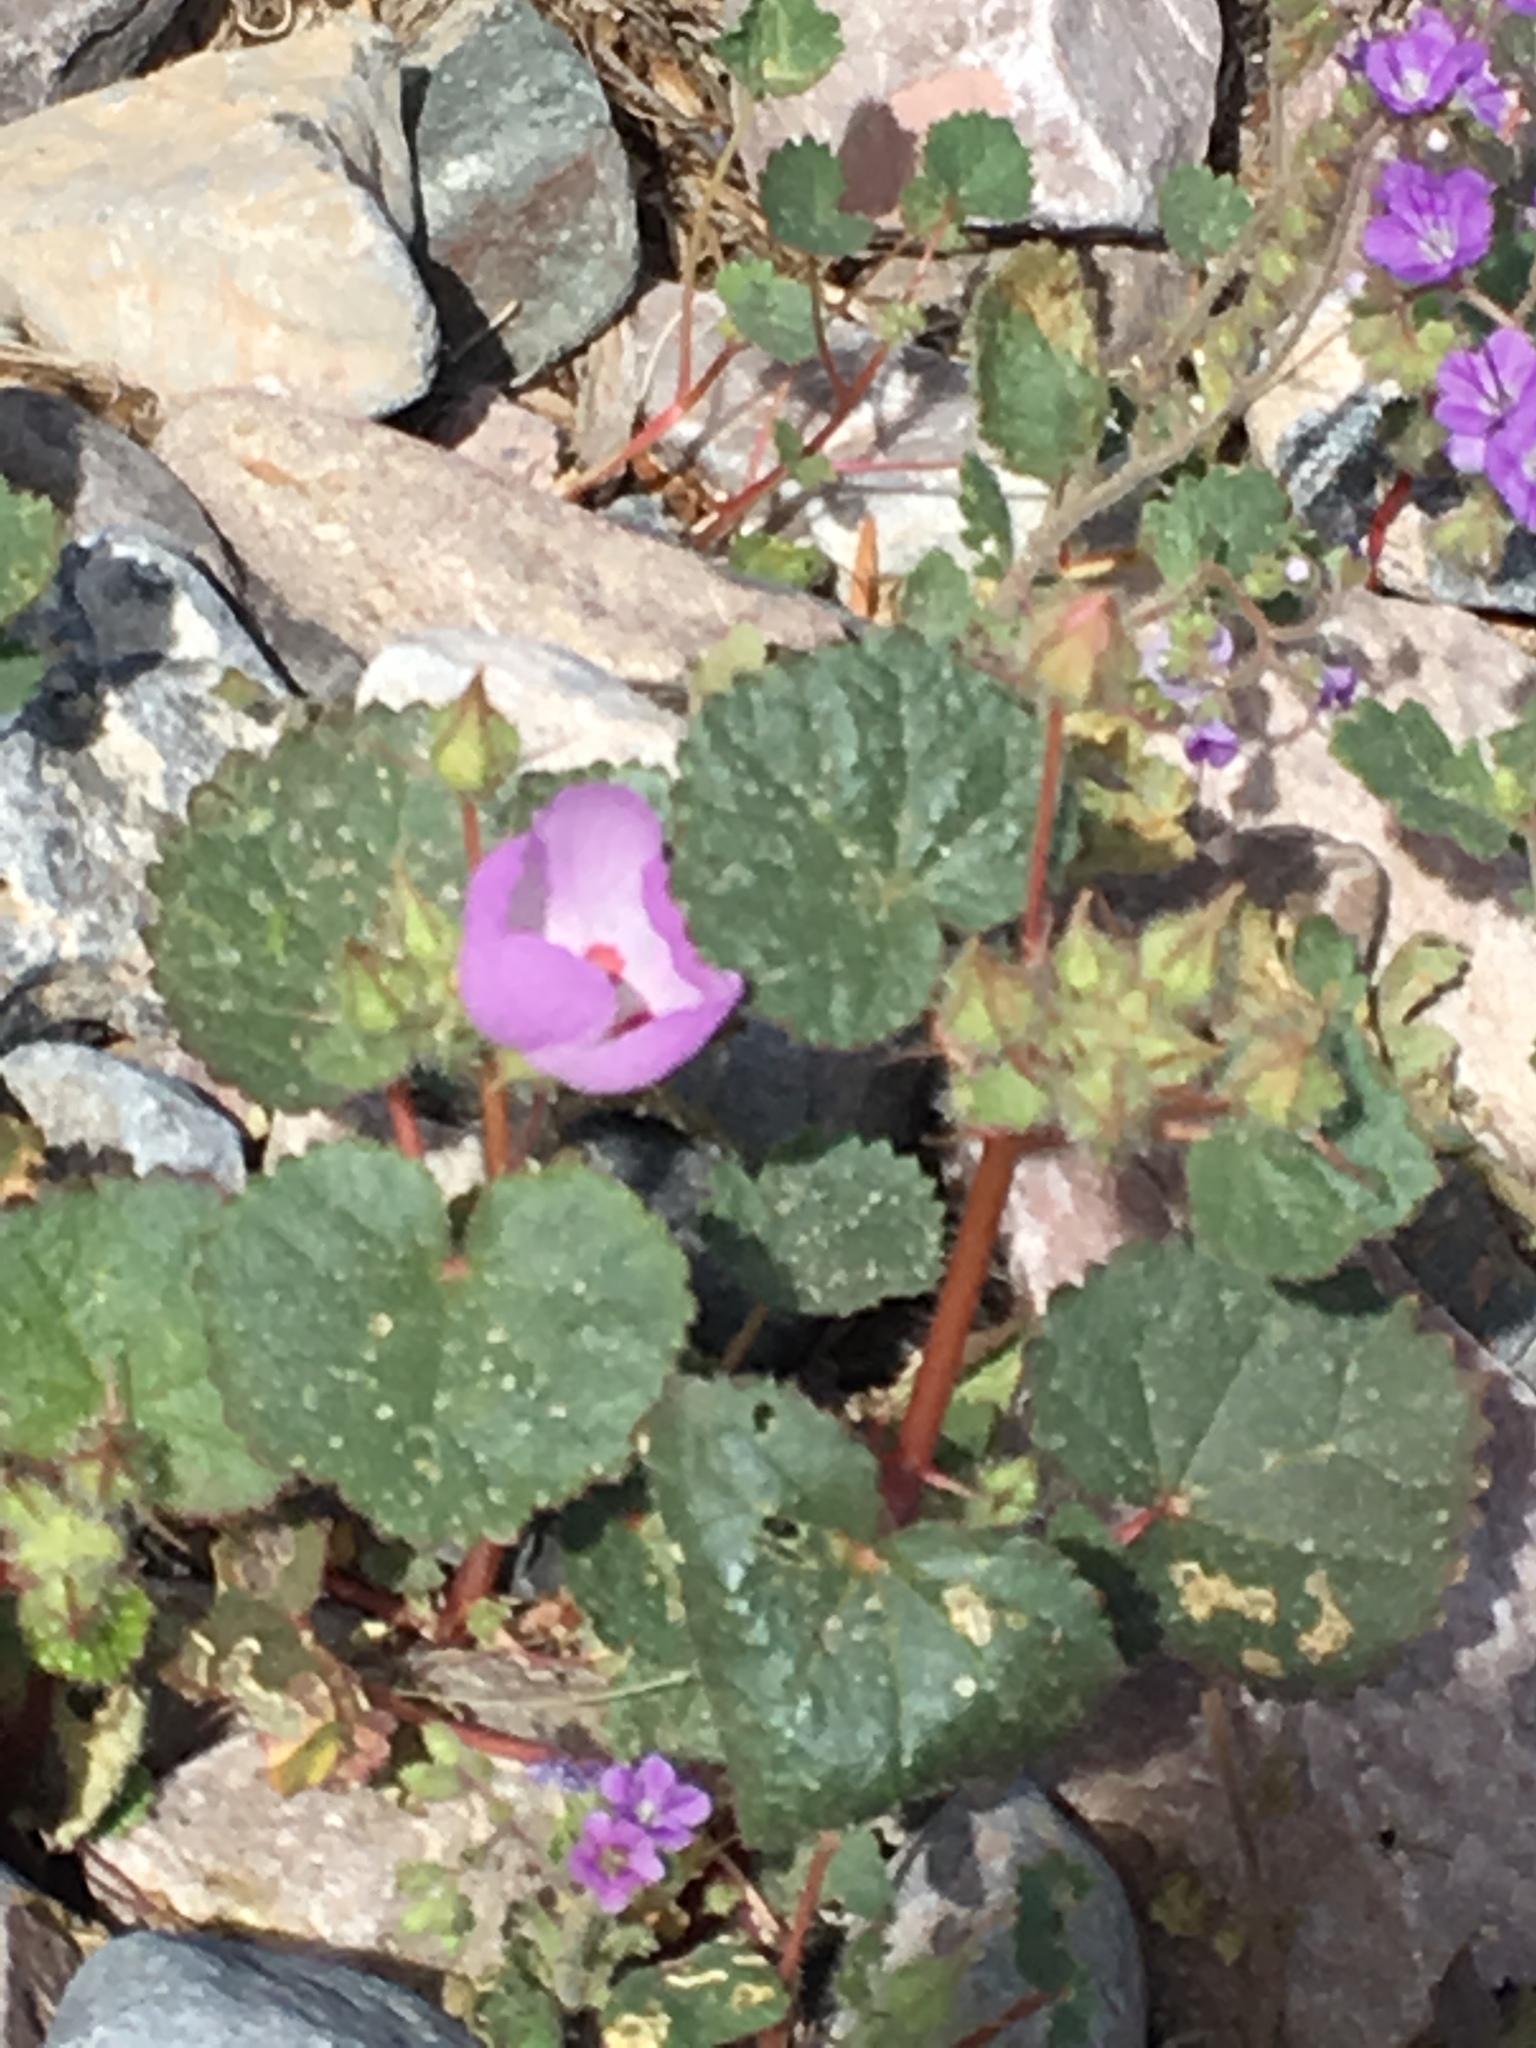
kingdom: Plantae
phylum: Tracheophyta
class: Magnoliopsida
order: Malvales
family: Malvaceae
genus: Eremalche
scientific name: Eremalche rotundifolia
